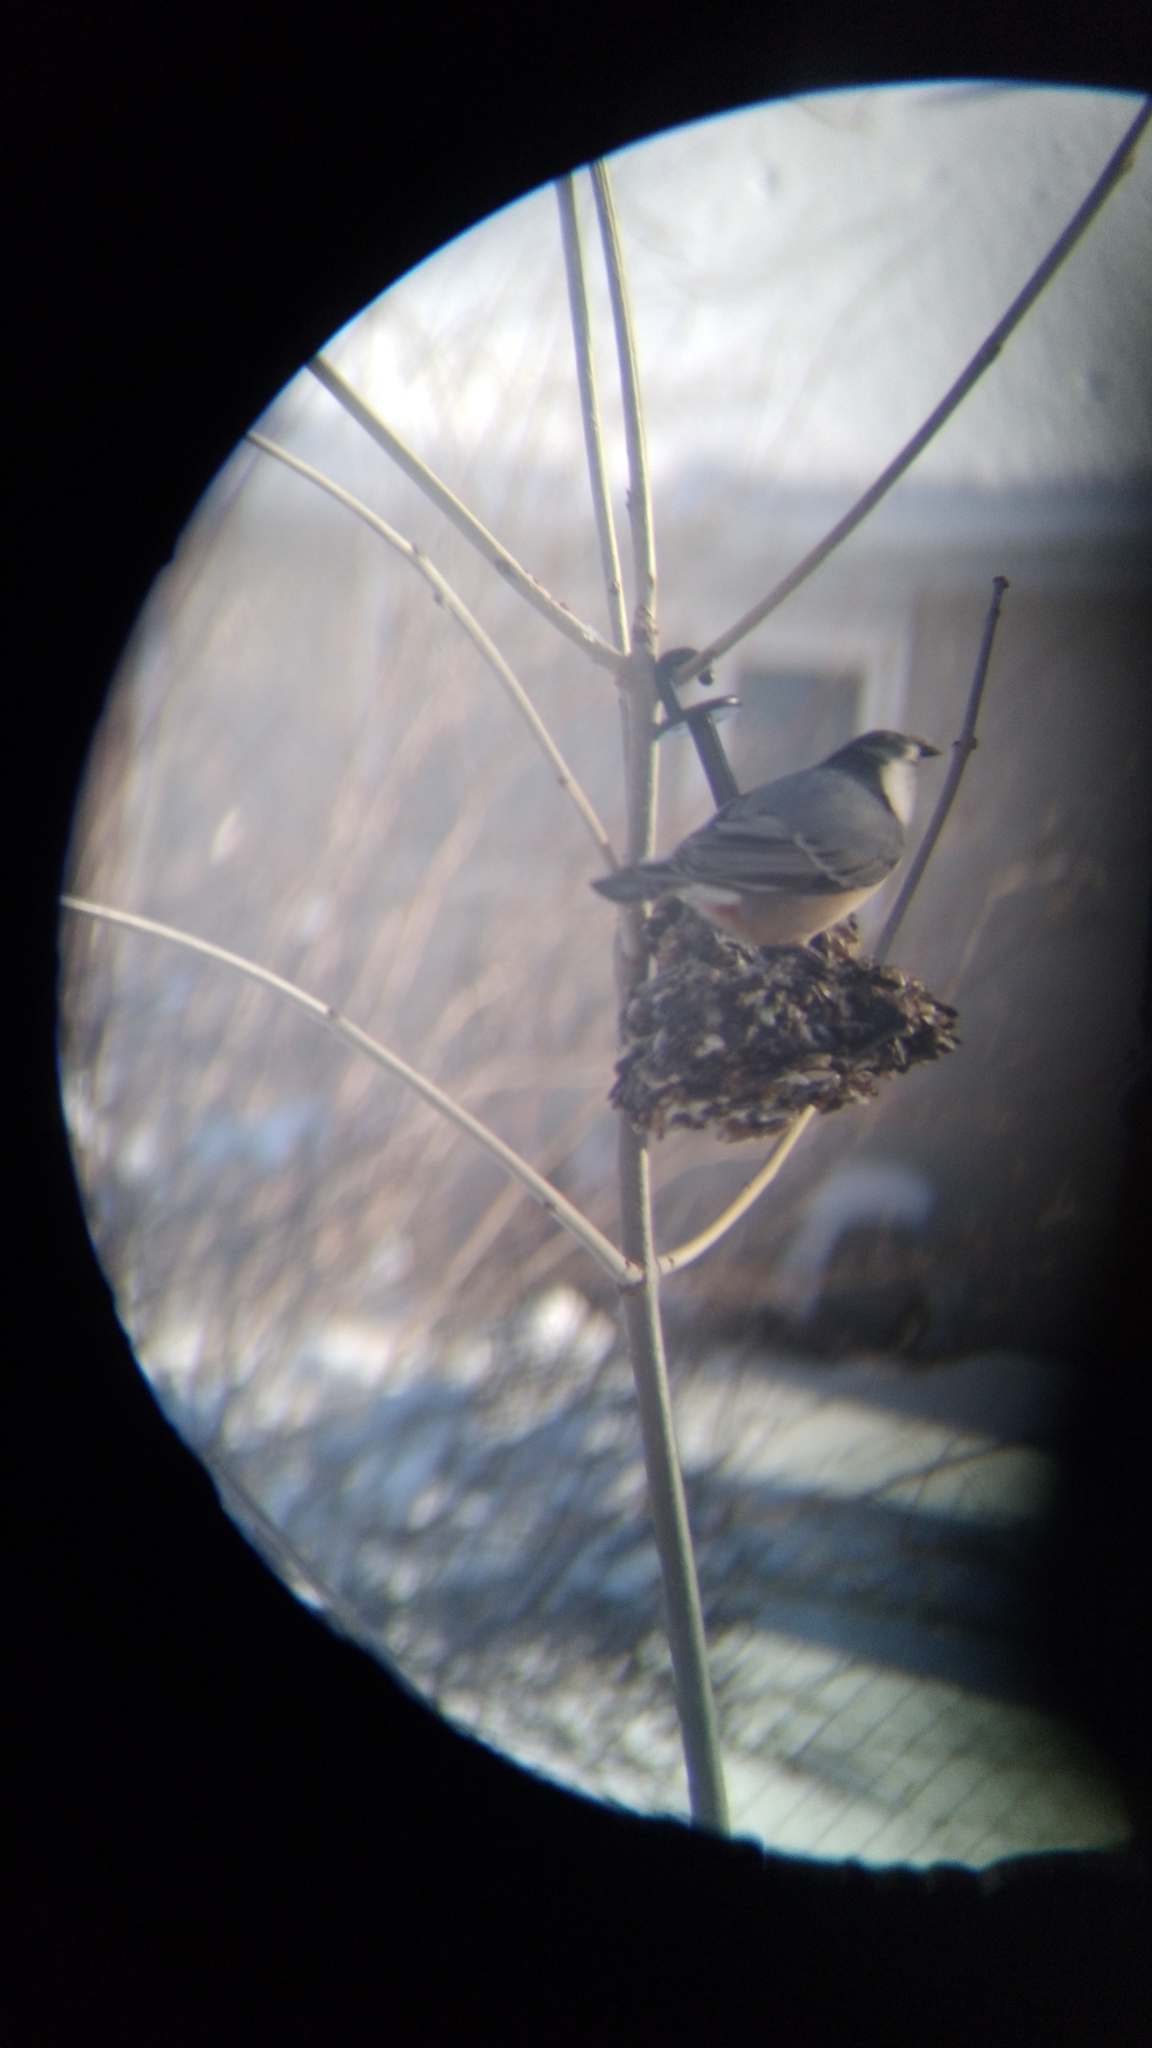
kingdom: Animalia
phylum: Chordata
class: Aves
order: Passeriformes
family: Sittidae
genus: Sitta
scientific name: Sitta carolinensis
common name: White-breasted nuthatch
